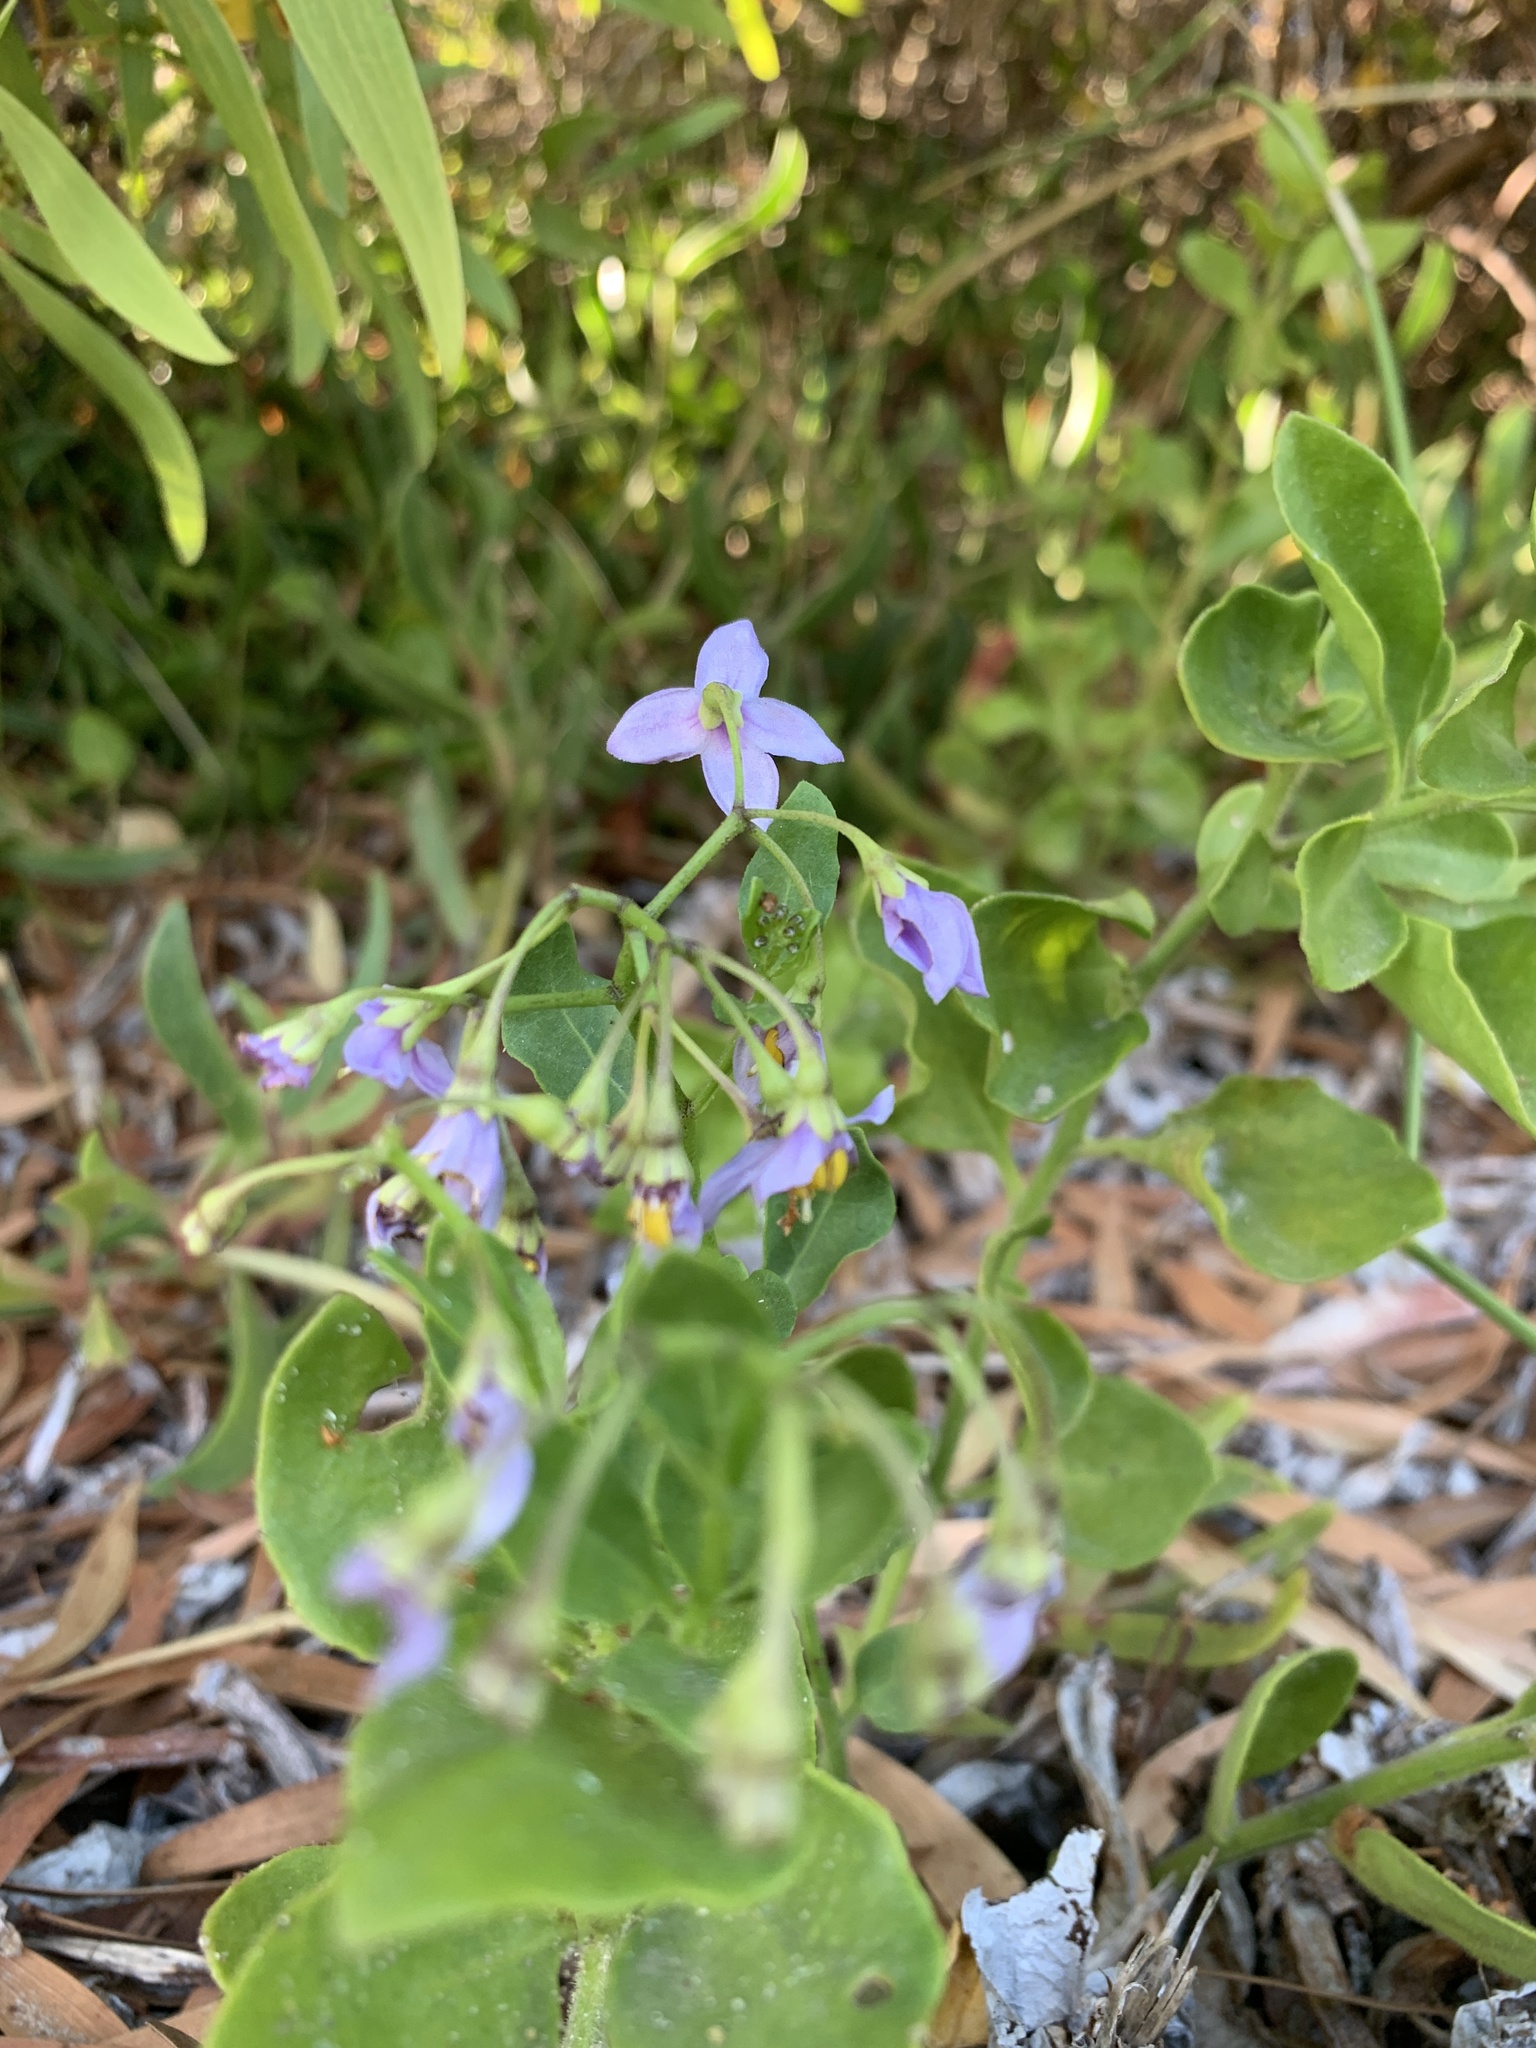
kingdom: Plantae
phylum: Tracheophyta
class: Magnoliopsida
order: Solanales
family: Solanaceae
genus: Solanum
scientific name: Solanum africanum
